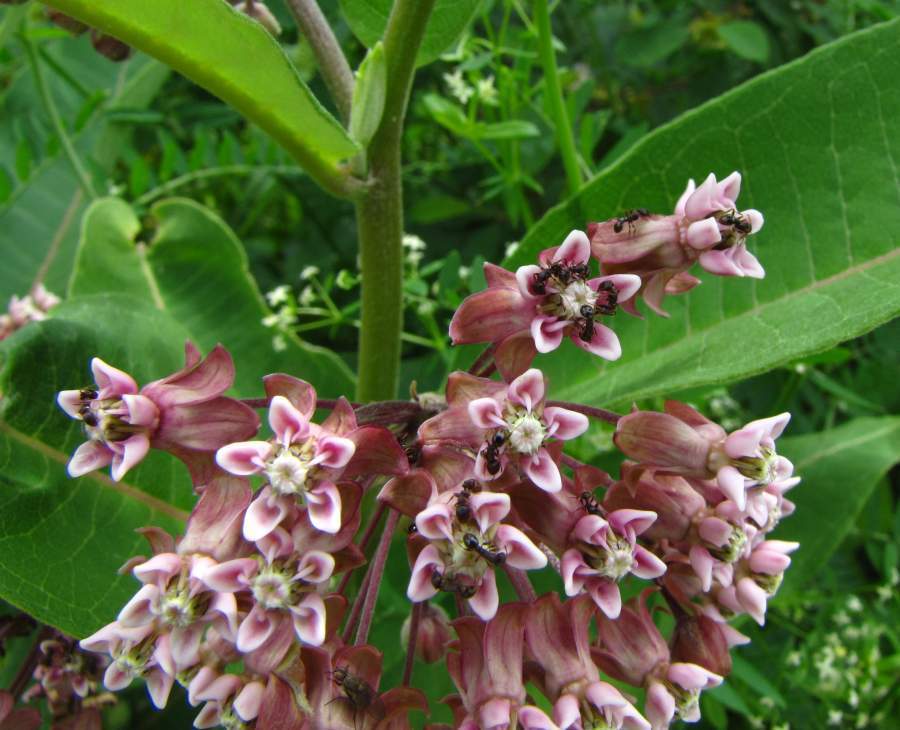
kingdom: Plantae
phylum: Tracheophyta
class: Magnoliopsida
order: Gentianales
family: Apocynaceae
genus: Asclepias
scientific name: Asclepias syriaca
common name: Common milkweed
